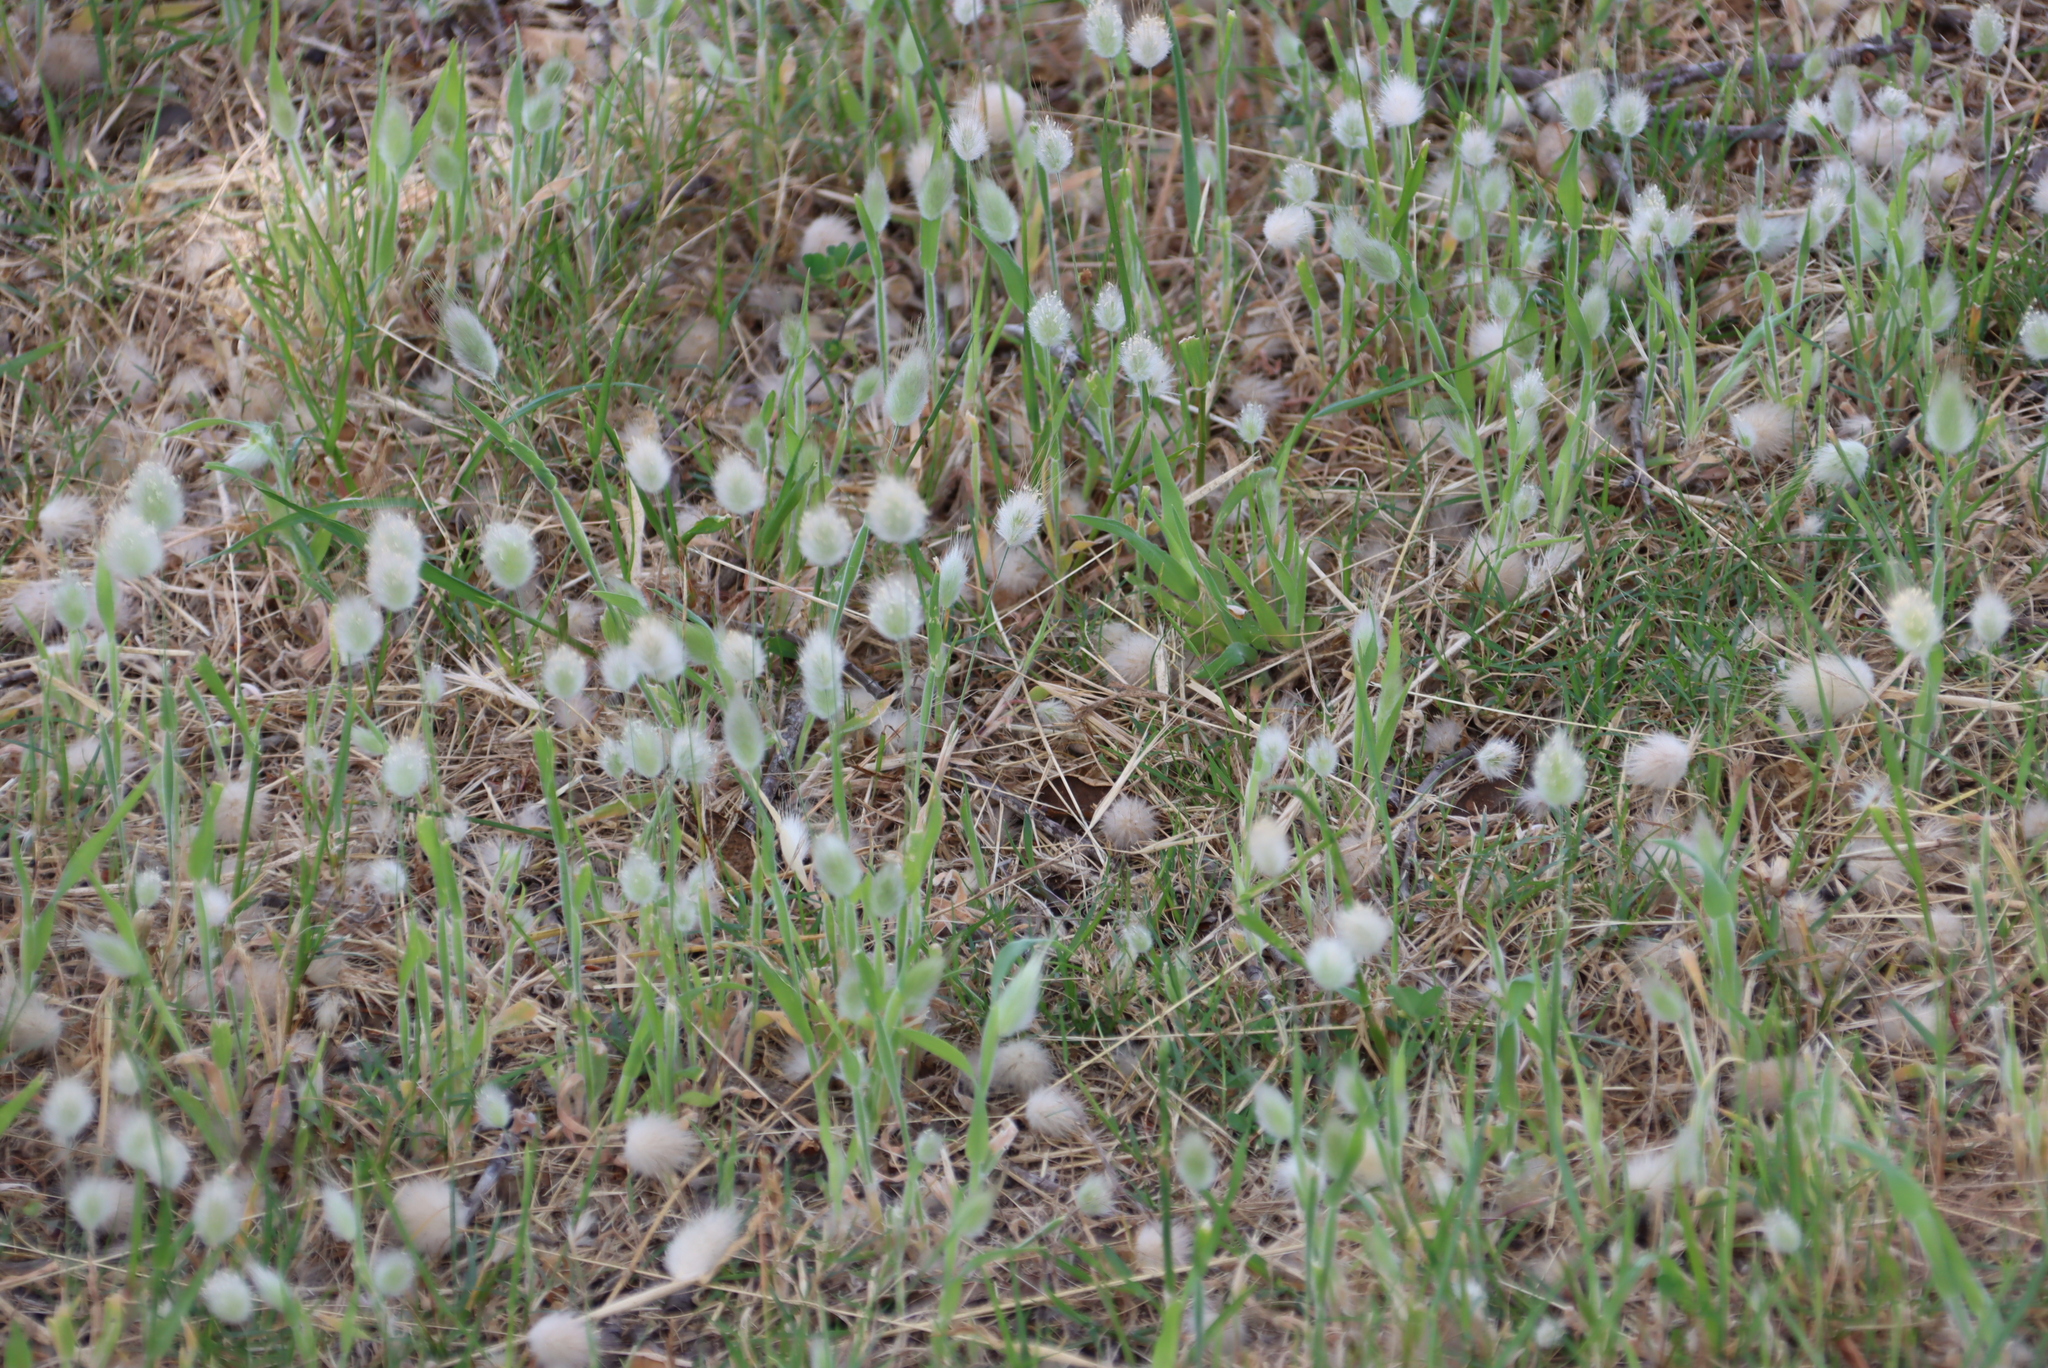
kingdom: Plantae
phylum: Tracheophyta
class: Liliopsida
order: Poales
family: Poaceae
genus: Lagurus
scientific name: Lagurus ovatus
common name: Hare's-tail
